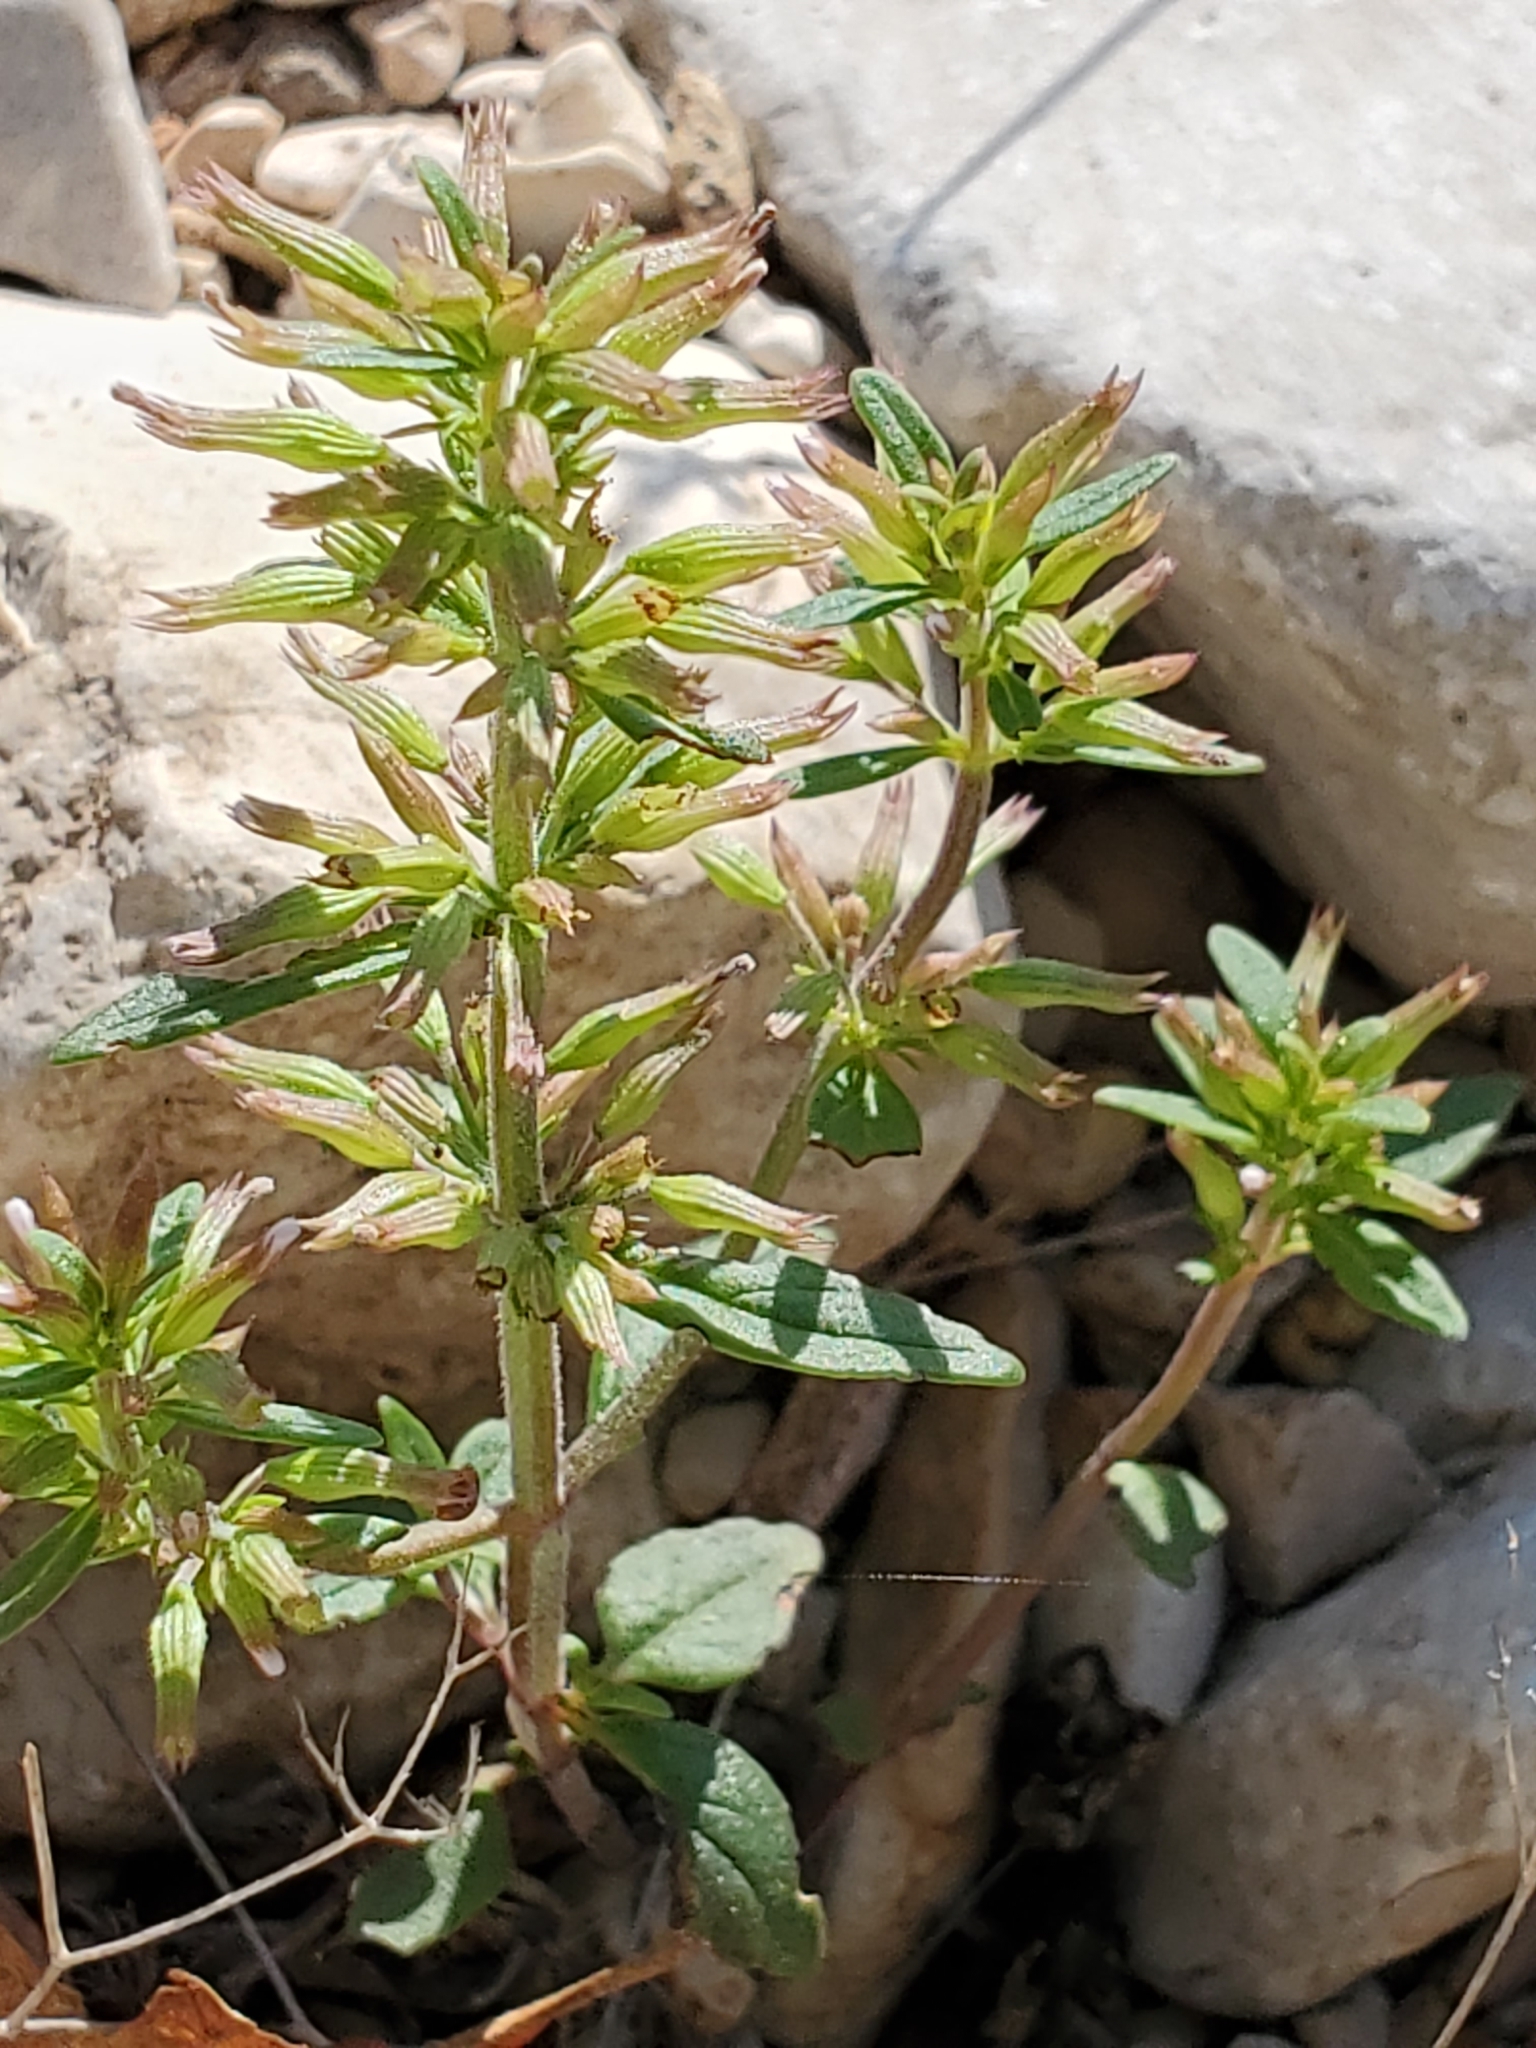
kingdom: Plantae
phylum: Tracheophyta
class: Magnoliopsida
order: Lamiales
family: Lamiaceae
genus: Hedeoma
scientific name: Hedeoma acinoides
